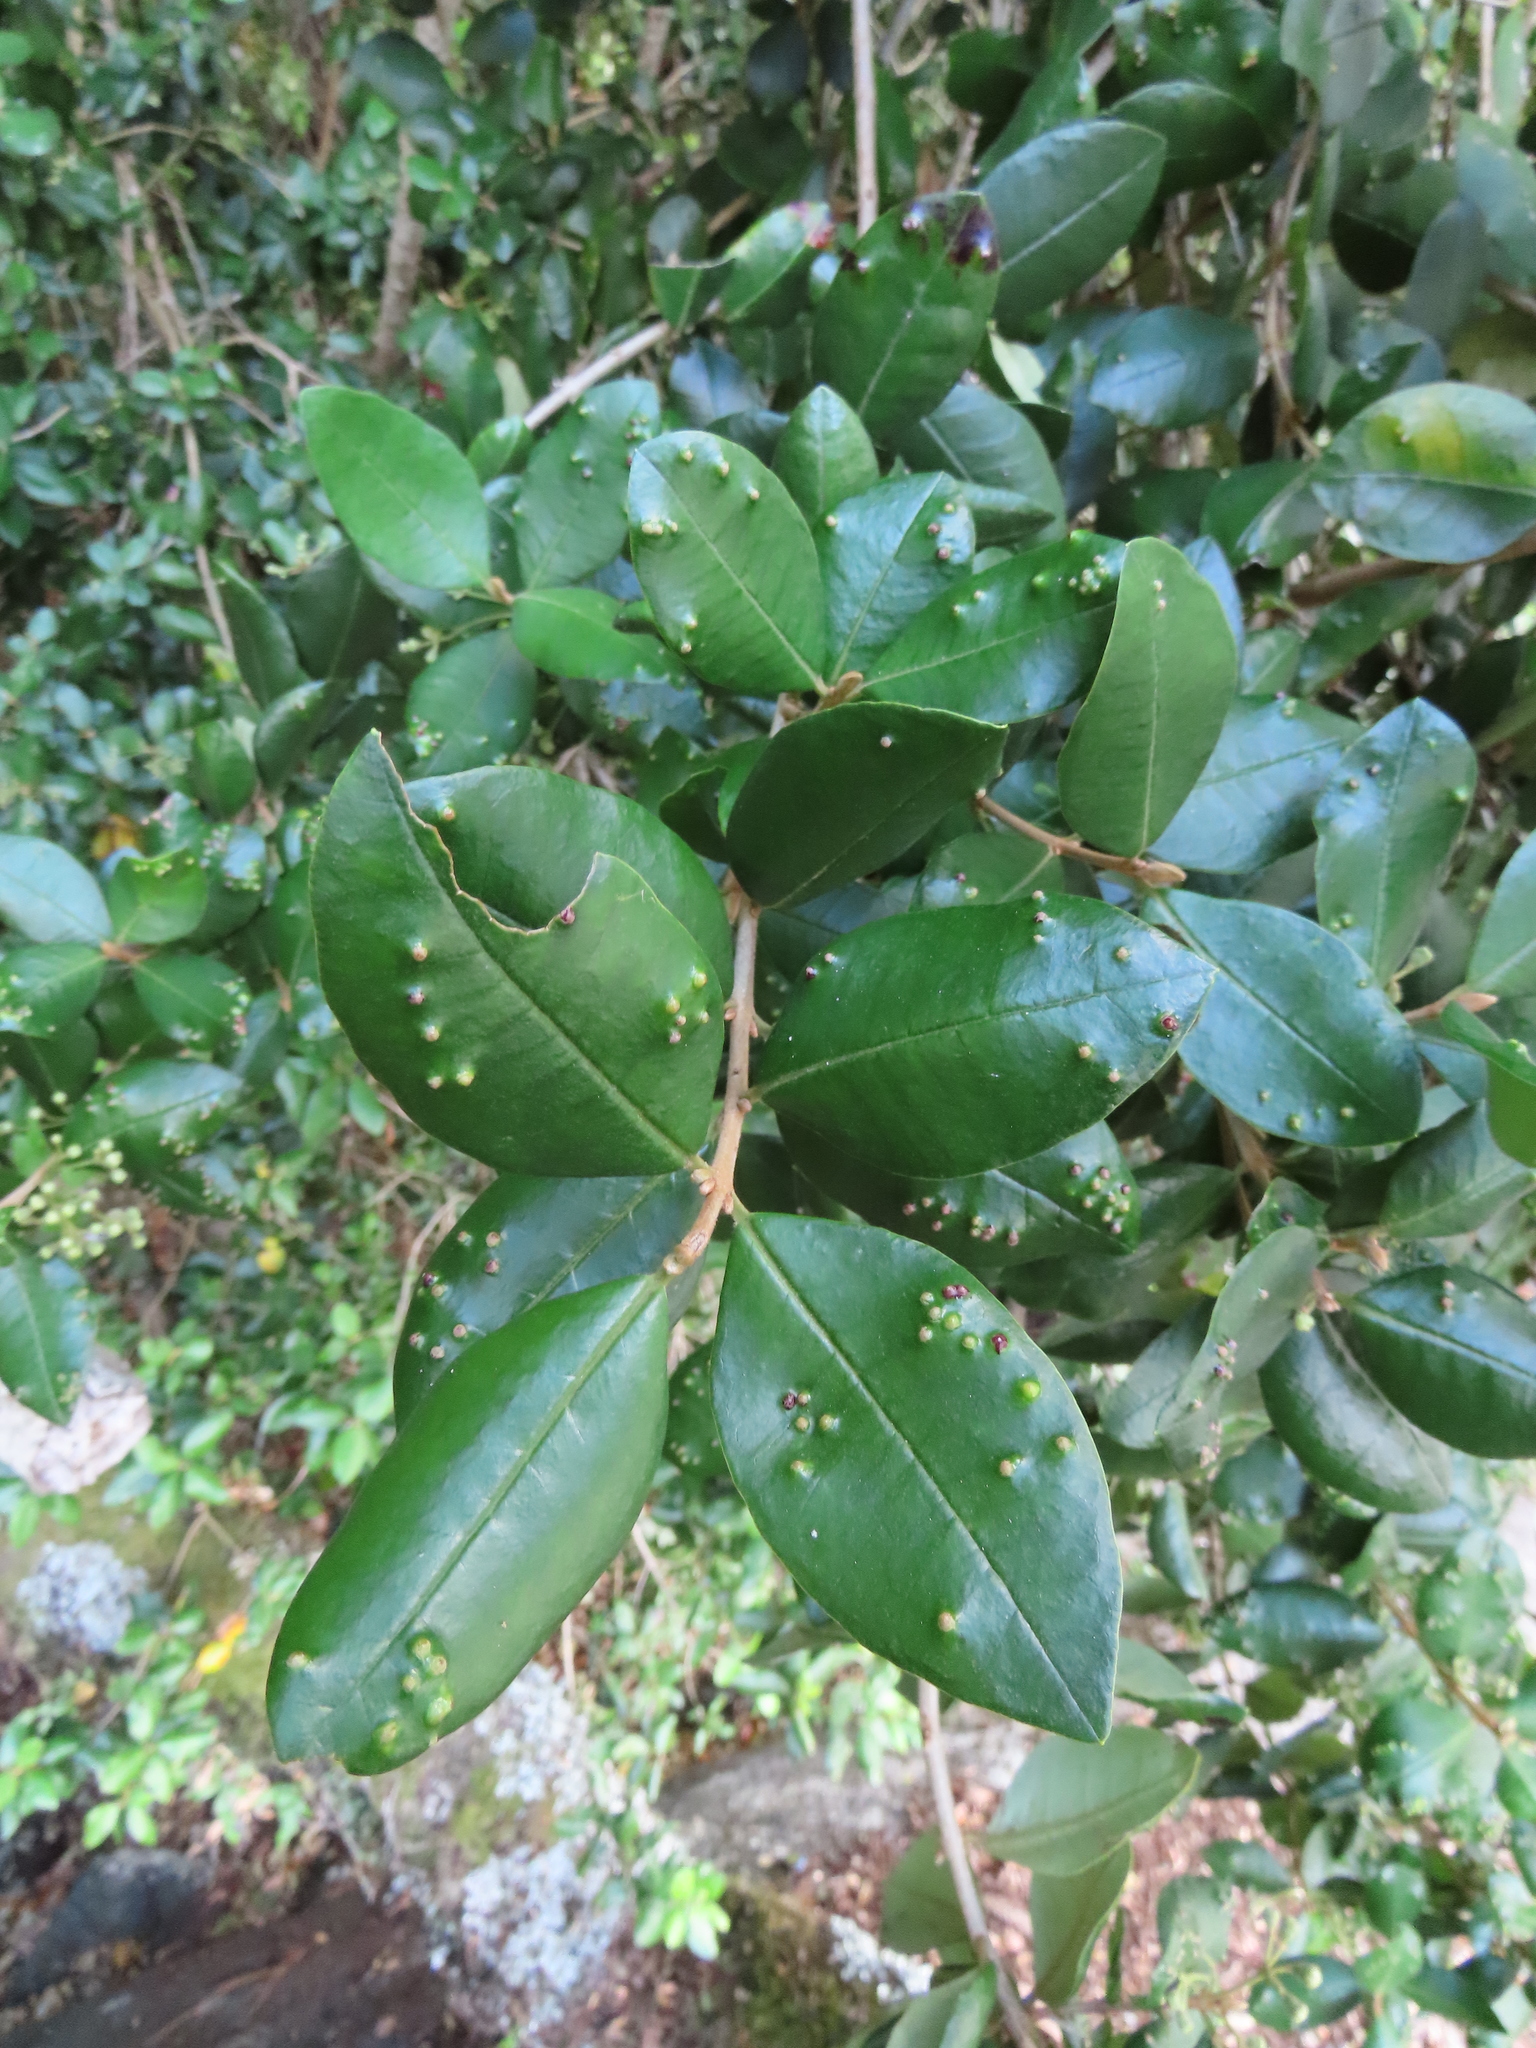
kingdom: Plantae
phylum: Tracheophyta
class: Magnoliopsida
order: Myrtales
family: Myrtaceae
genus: Myrceugenia
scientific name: Myrceugenia exsucca
